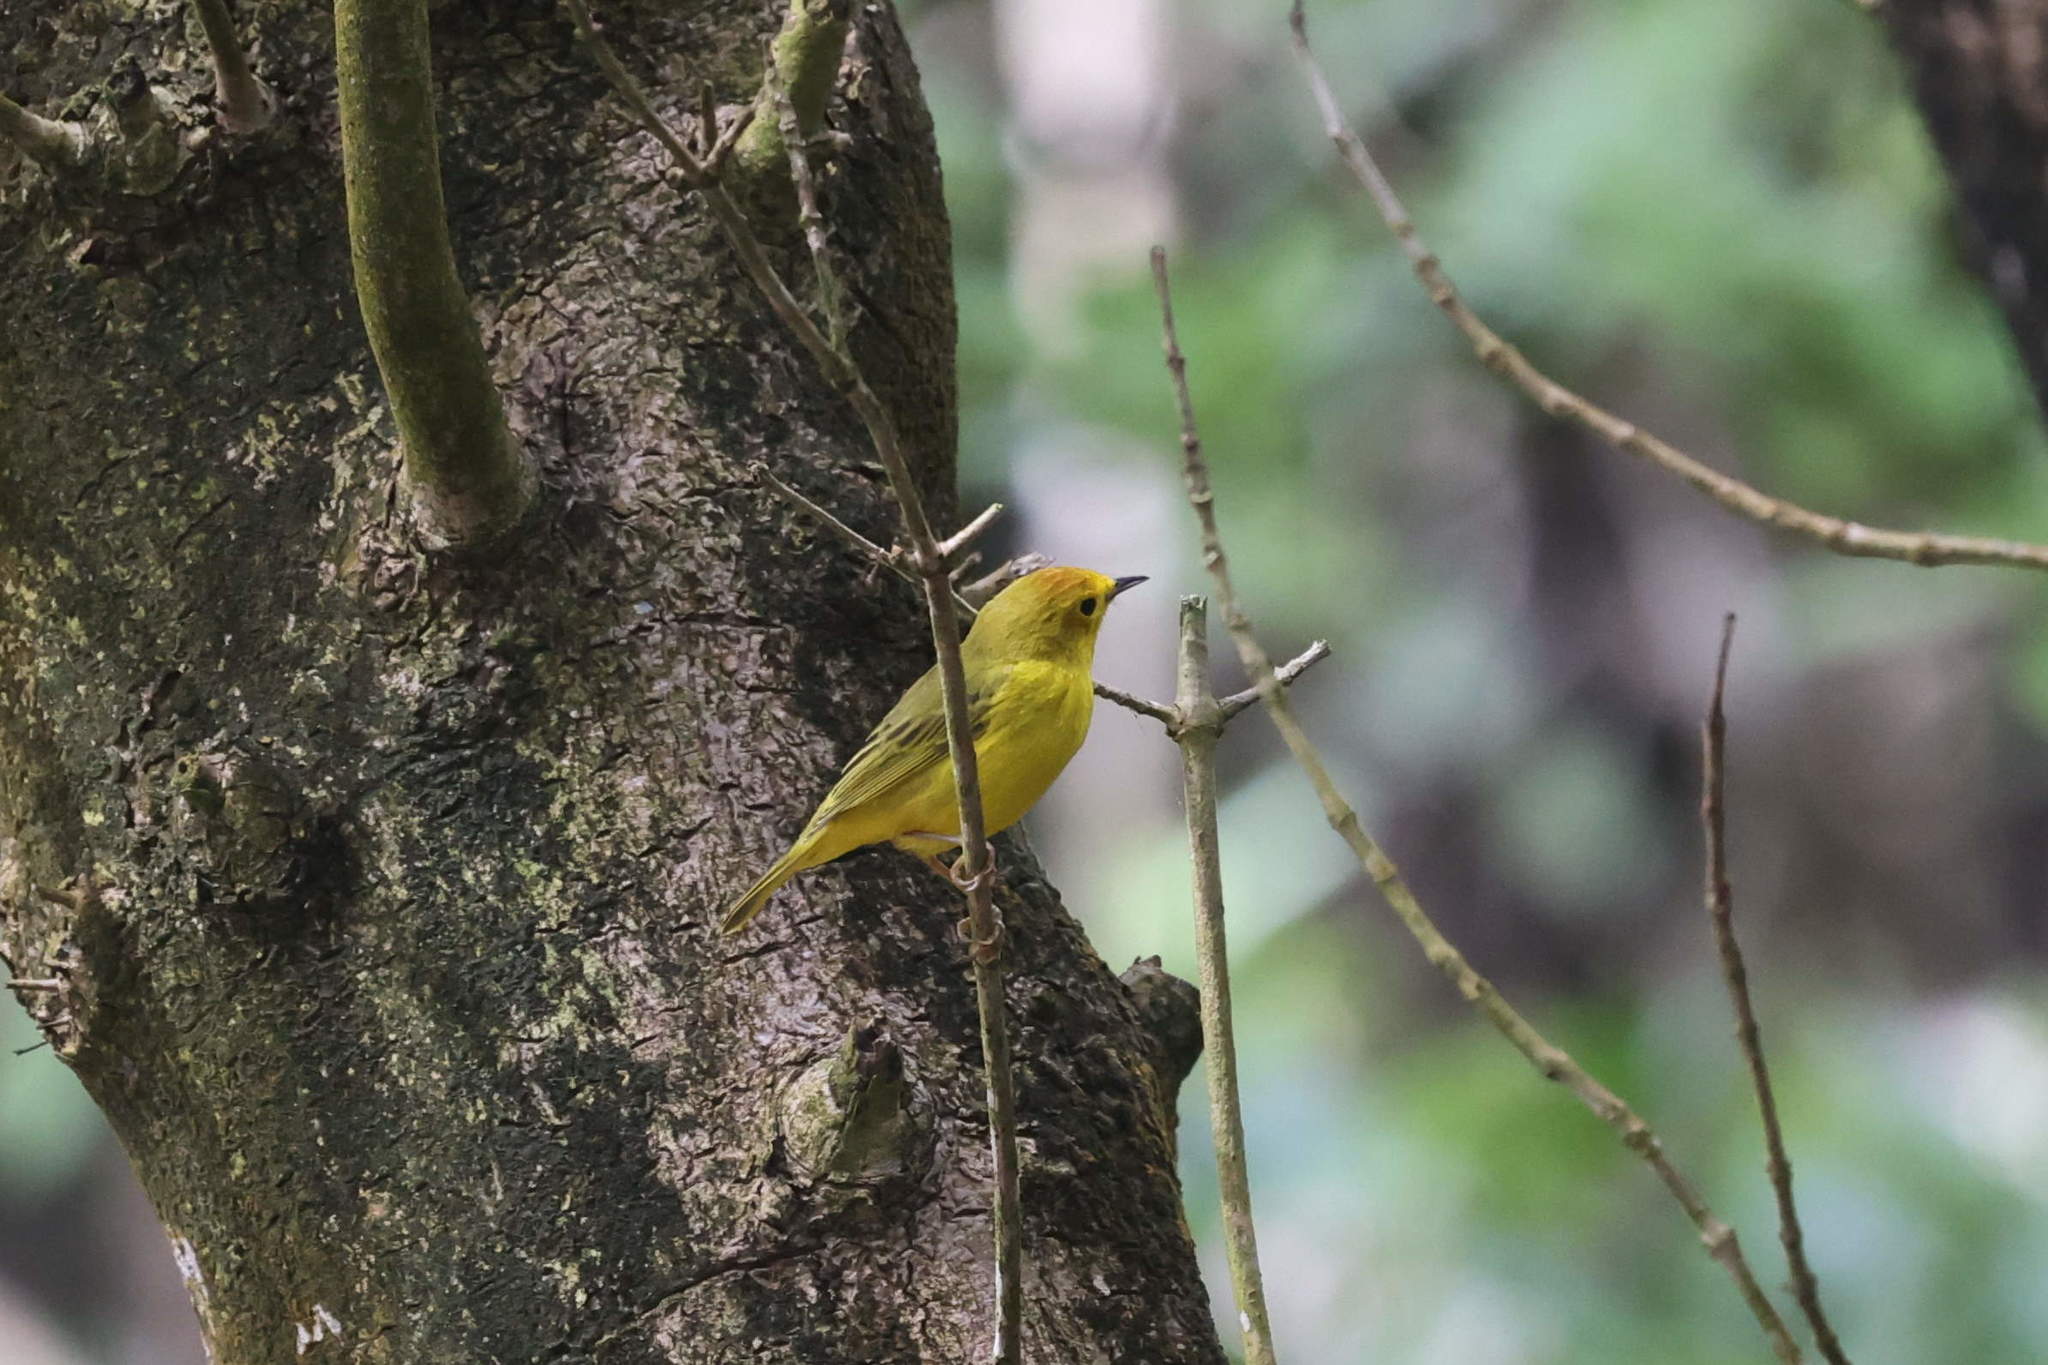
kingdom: Animalia
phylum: Chordata
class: Aves
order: Passeriformes
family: Parulidae
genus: Setophaga
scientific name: Setophaga petechia
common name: Yellow warbler
